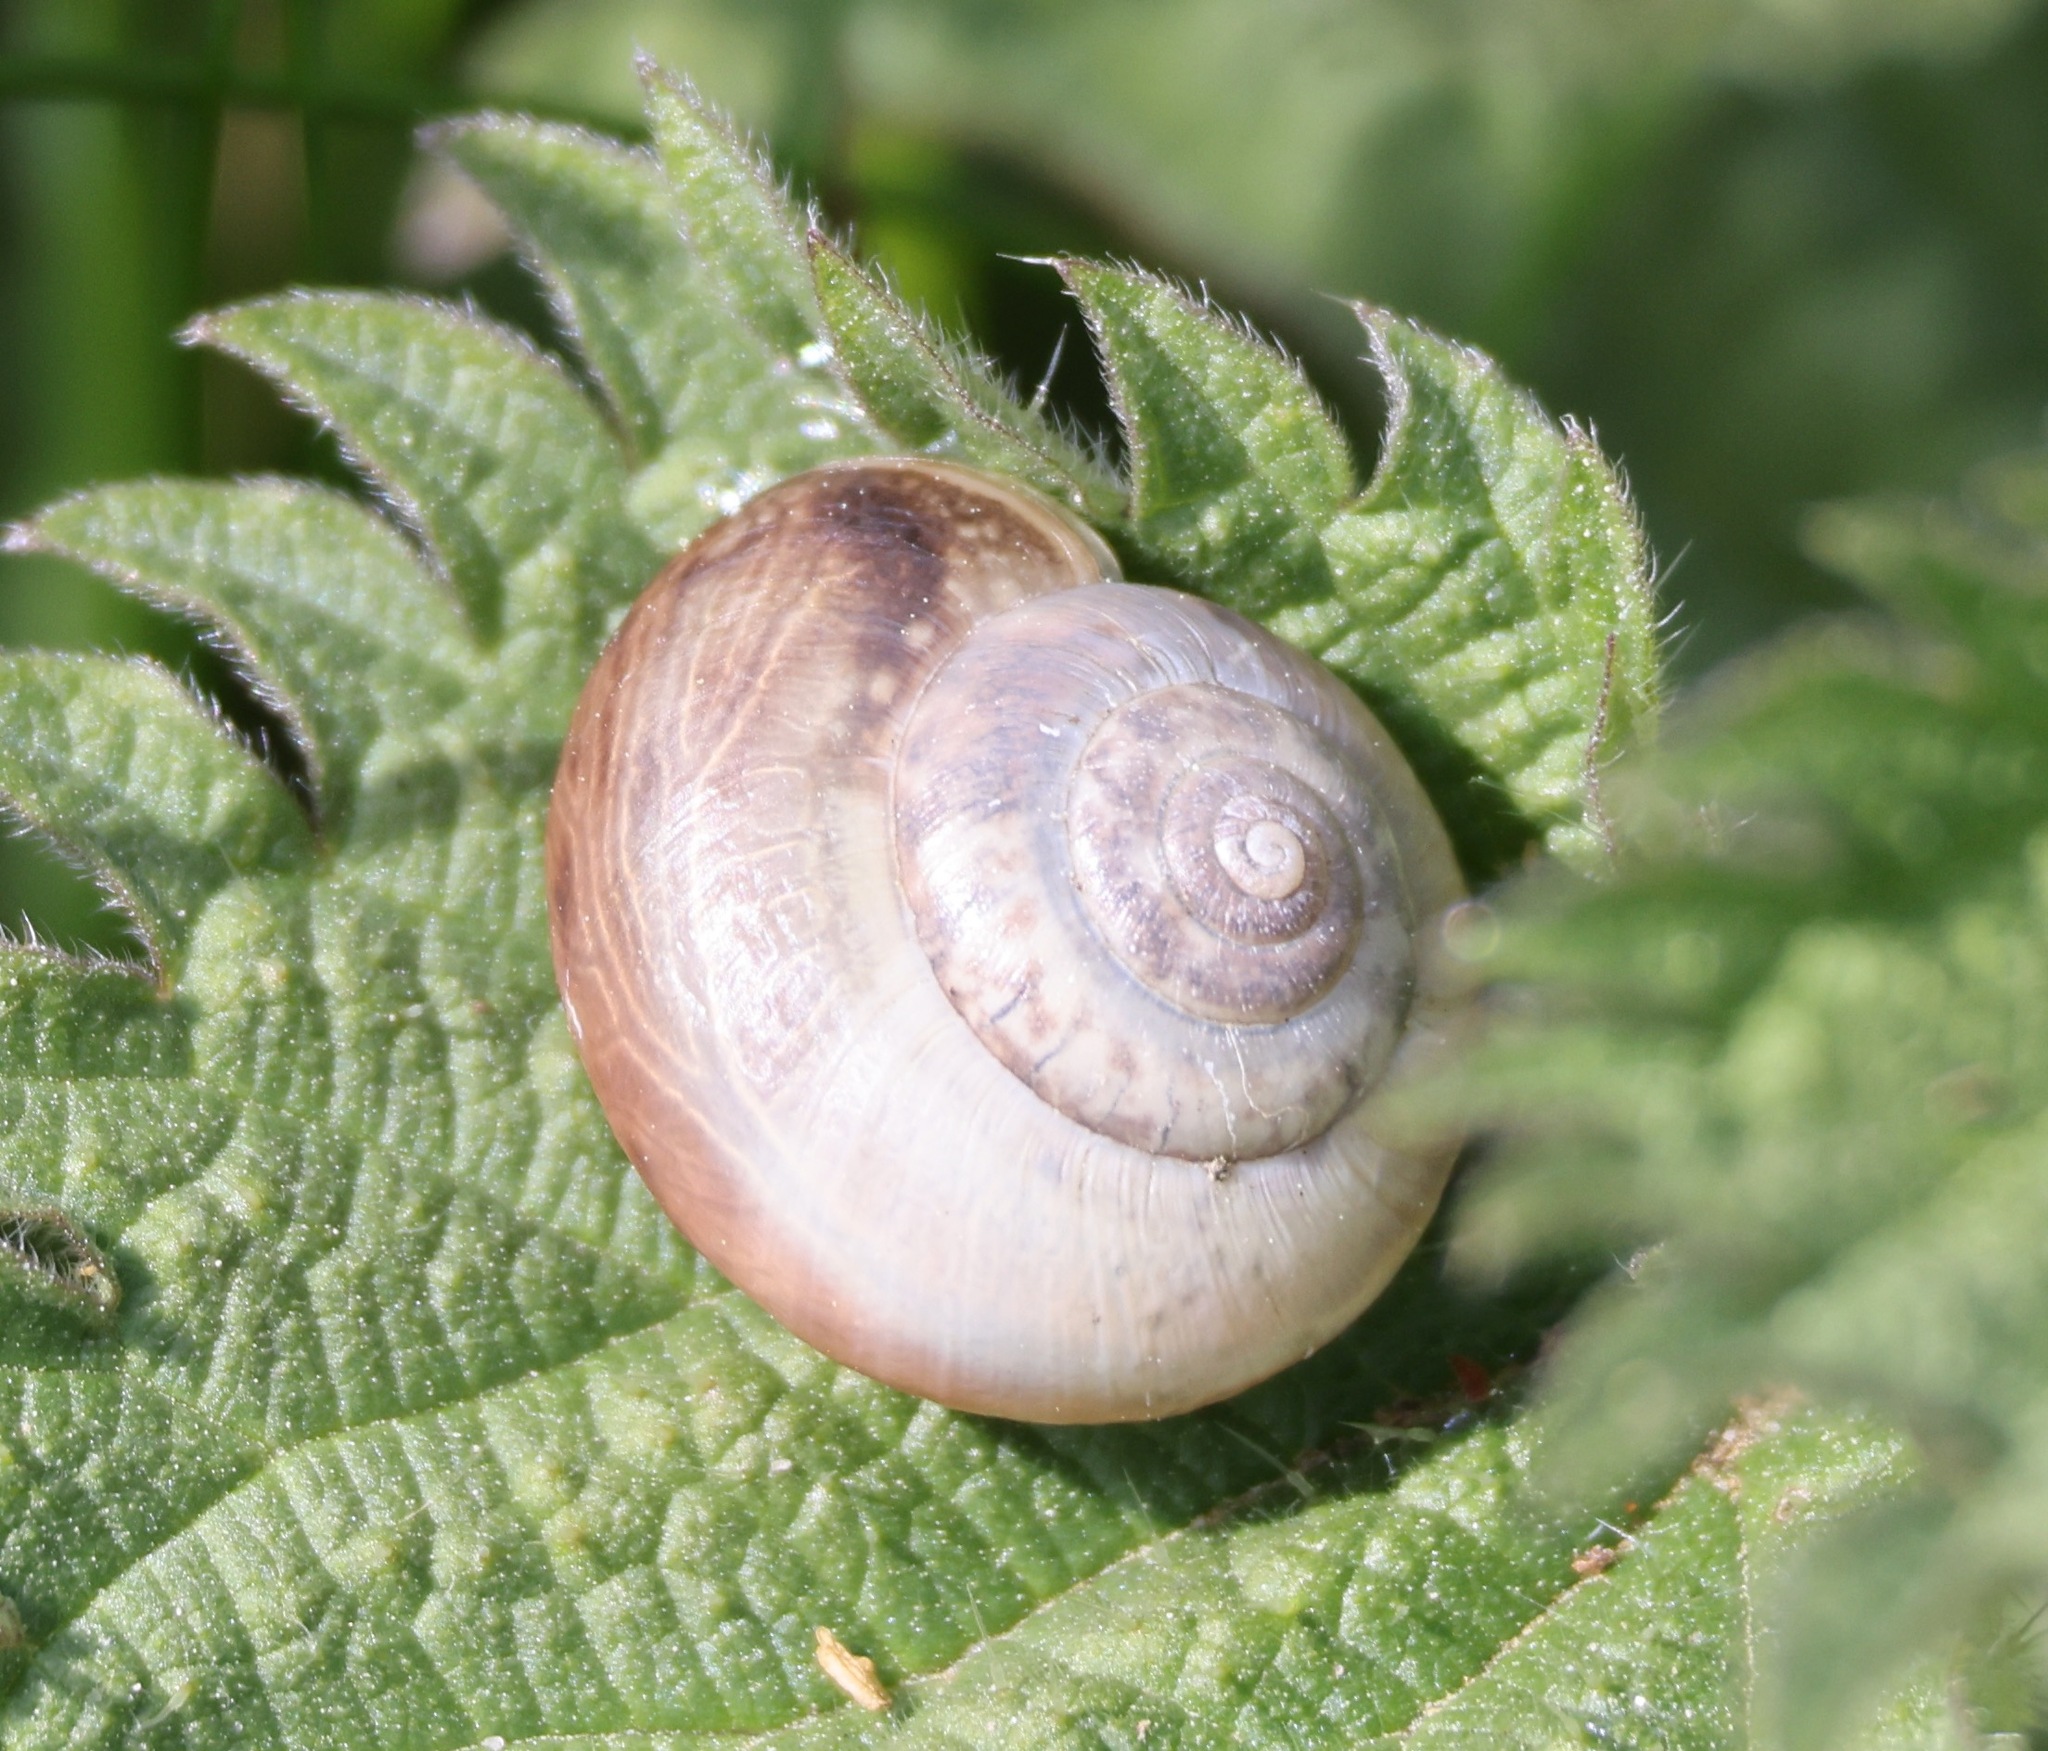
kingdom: Animalia
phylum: Mollusca
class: Gastropoda
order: Stylommatophora
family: Hygromiidae
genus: Monacha
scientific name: Monacha cantiana
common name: Kentish snail
